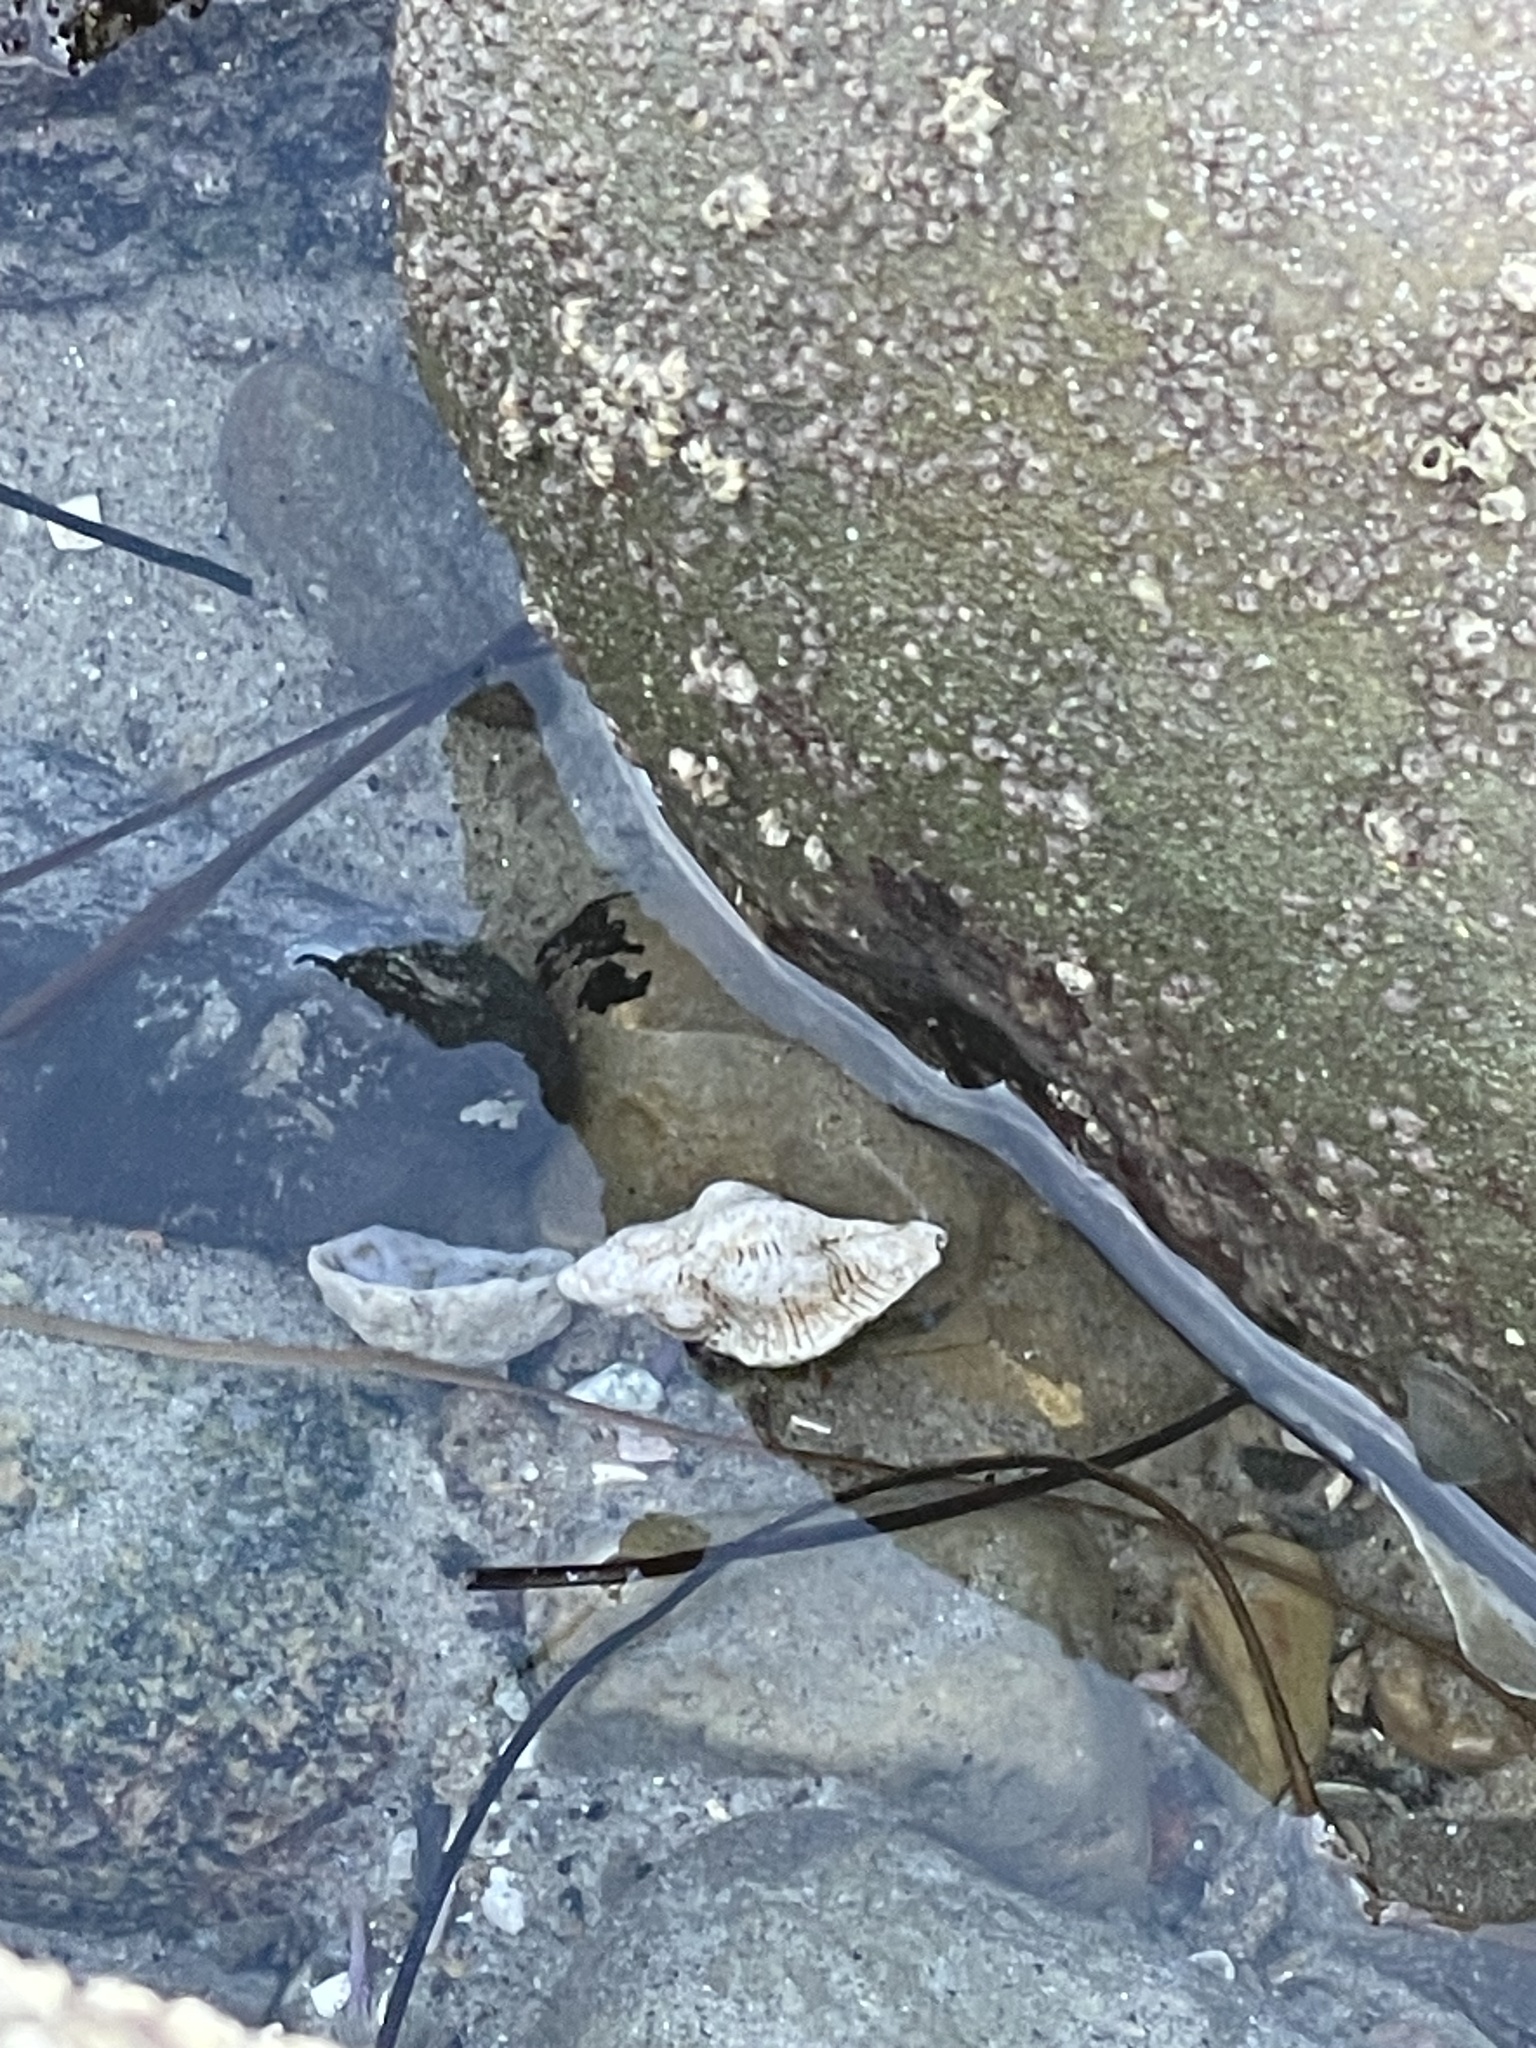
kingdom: Animalia
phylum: Mollusca
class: Gastropoda
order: Neogastropoda
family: Muricidae
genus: Pteropurpura
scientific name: Pteropurpura festiva
